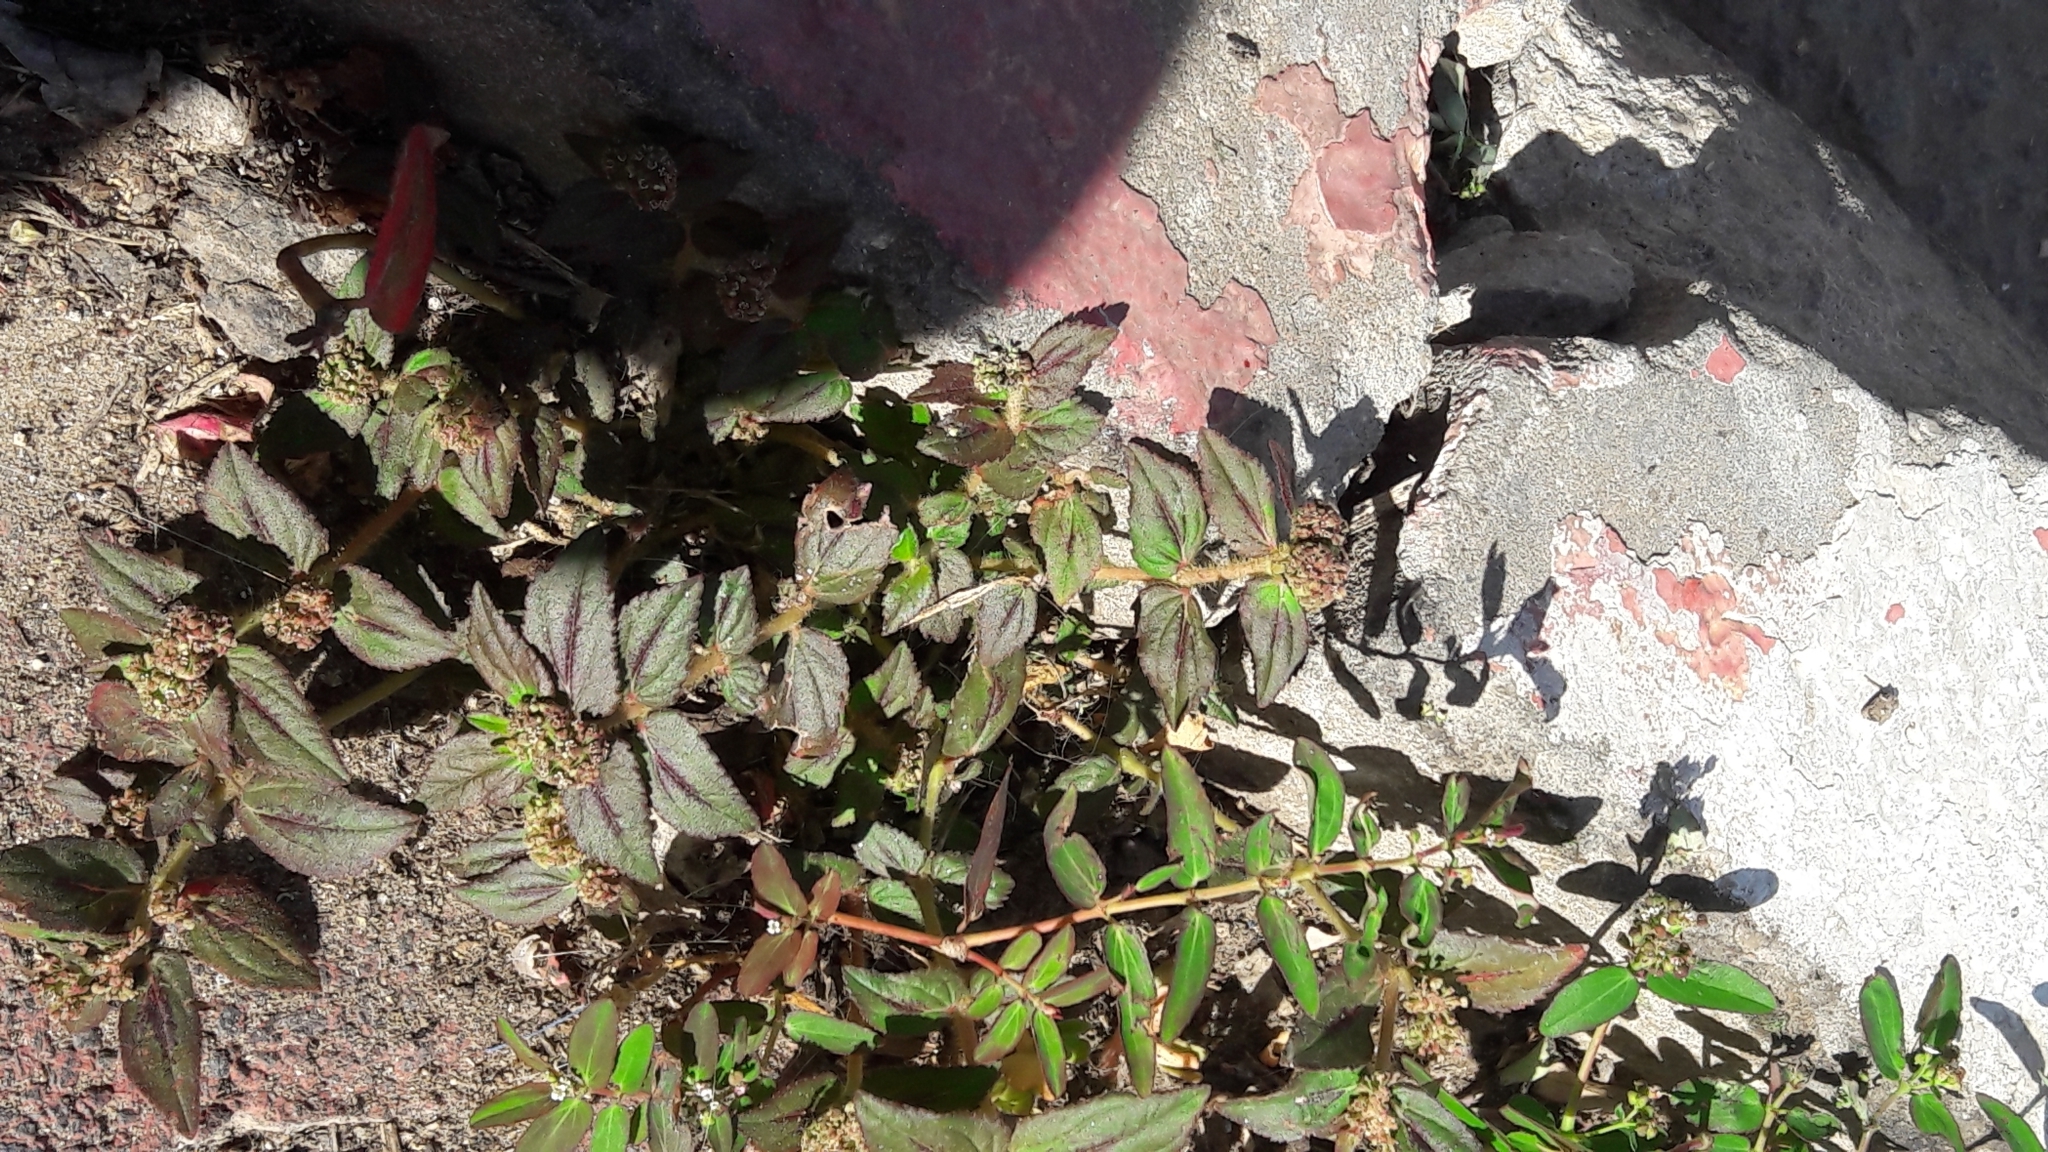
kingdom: Plantae
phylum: Tracheophyta
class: Magnoliopsida
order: Malpighiales
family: Euphorbiaceae
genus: Euphorbia
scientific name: Euphorbia hirta
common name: Pillpod sandmat
